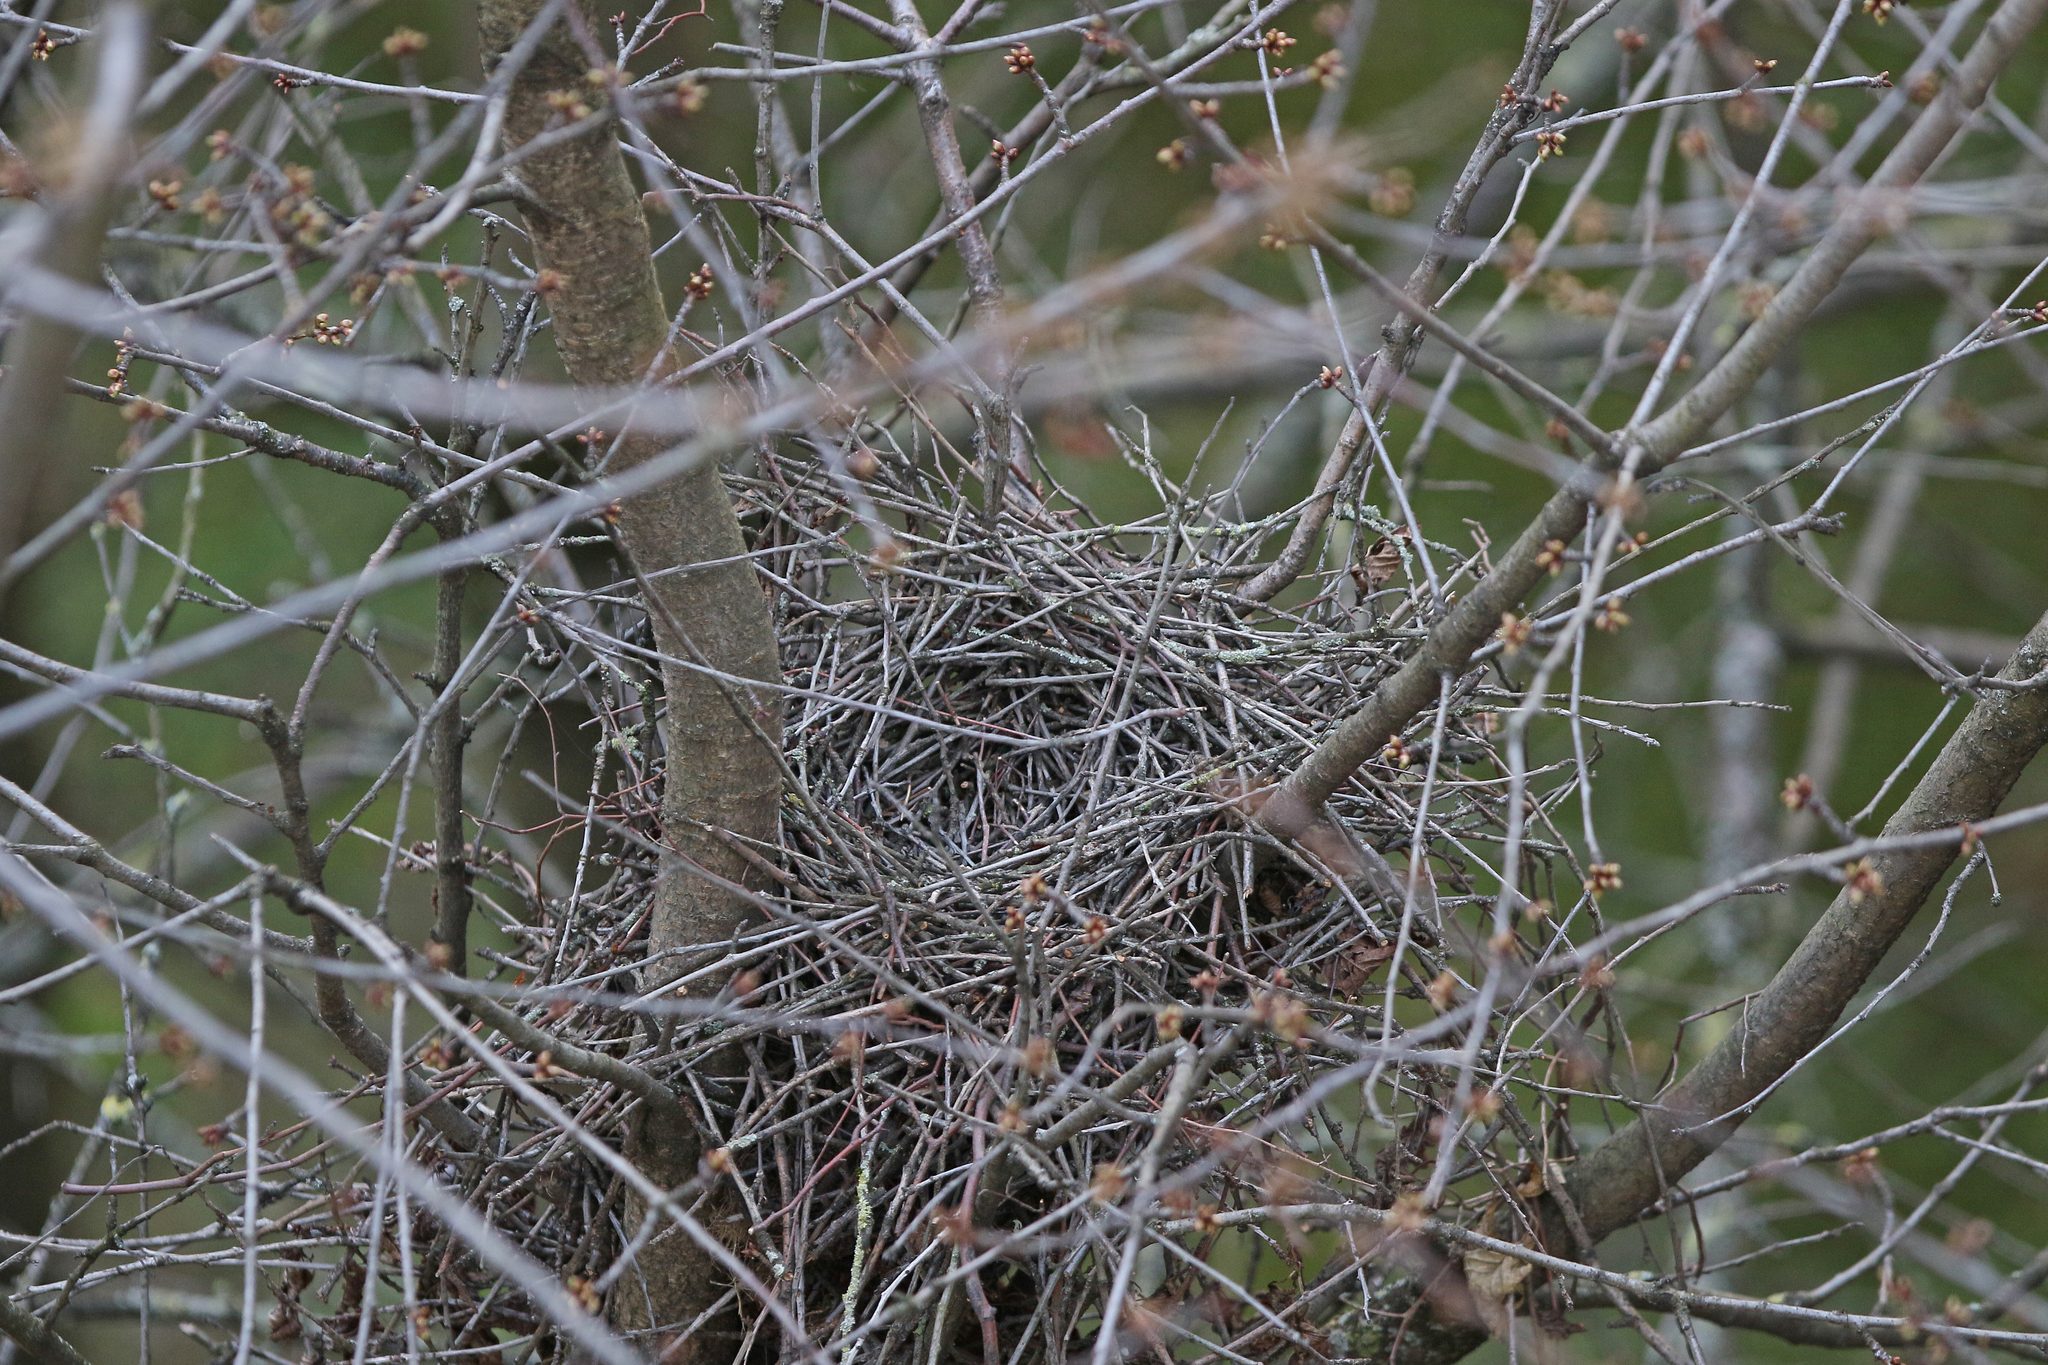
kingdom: Animalia
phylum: Chordata
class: Aves
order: Accipitriformes
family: Accipitridae
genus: Accipiter
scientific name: Accipiter nisus
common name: Eurasian sparrowhawk
